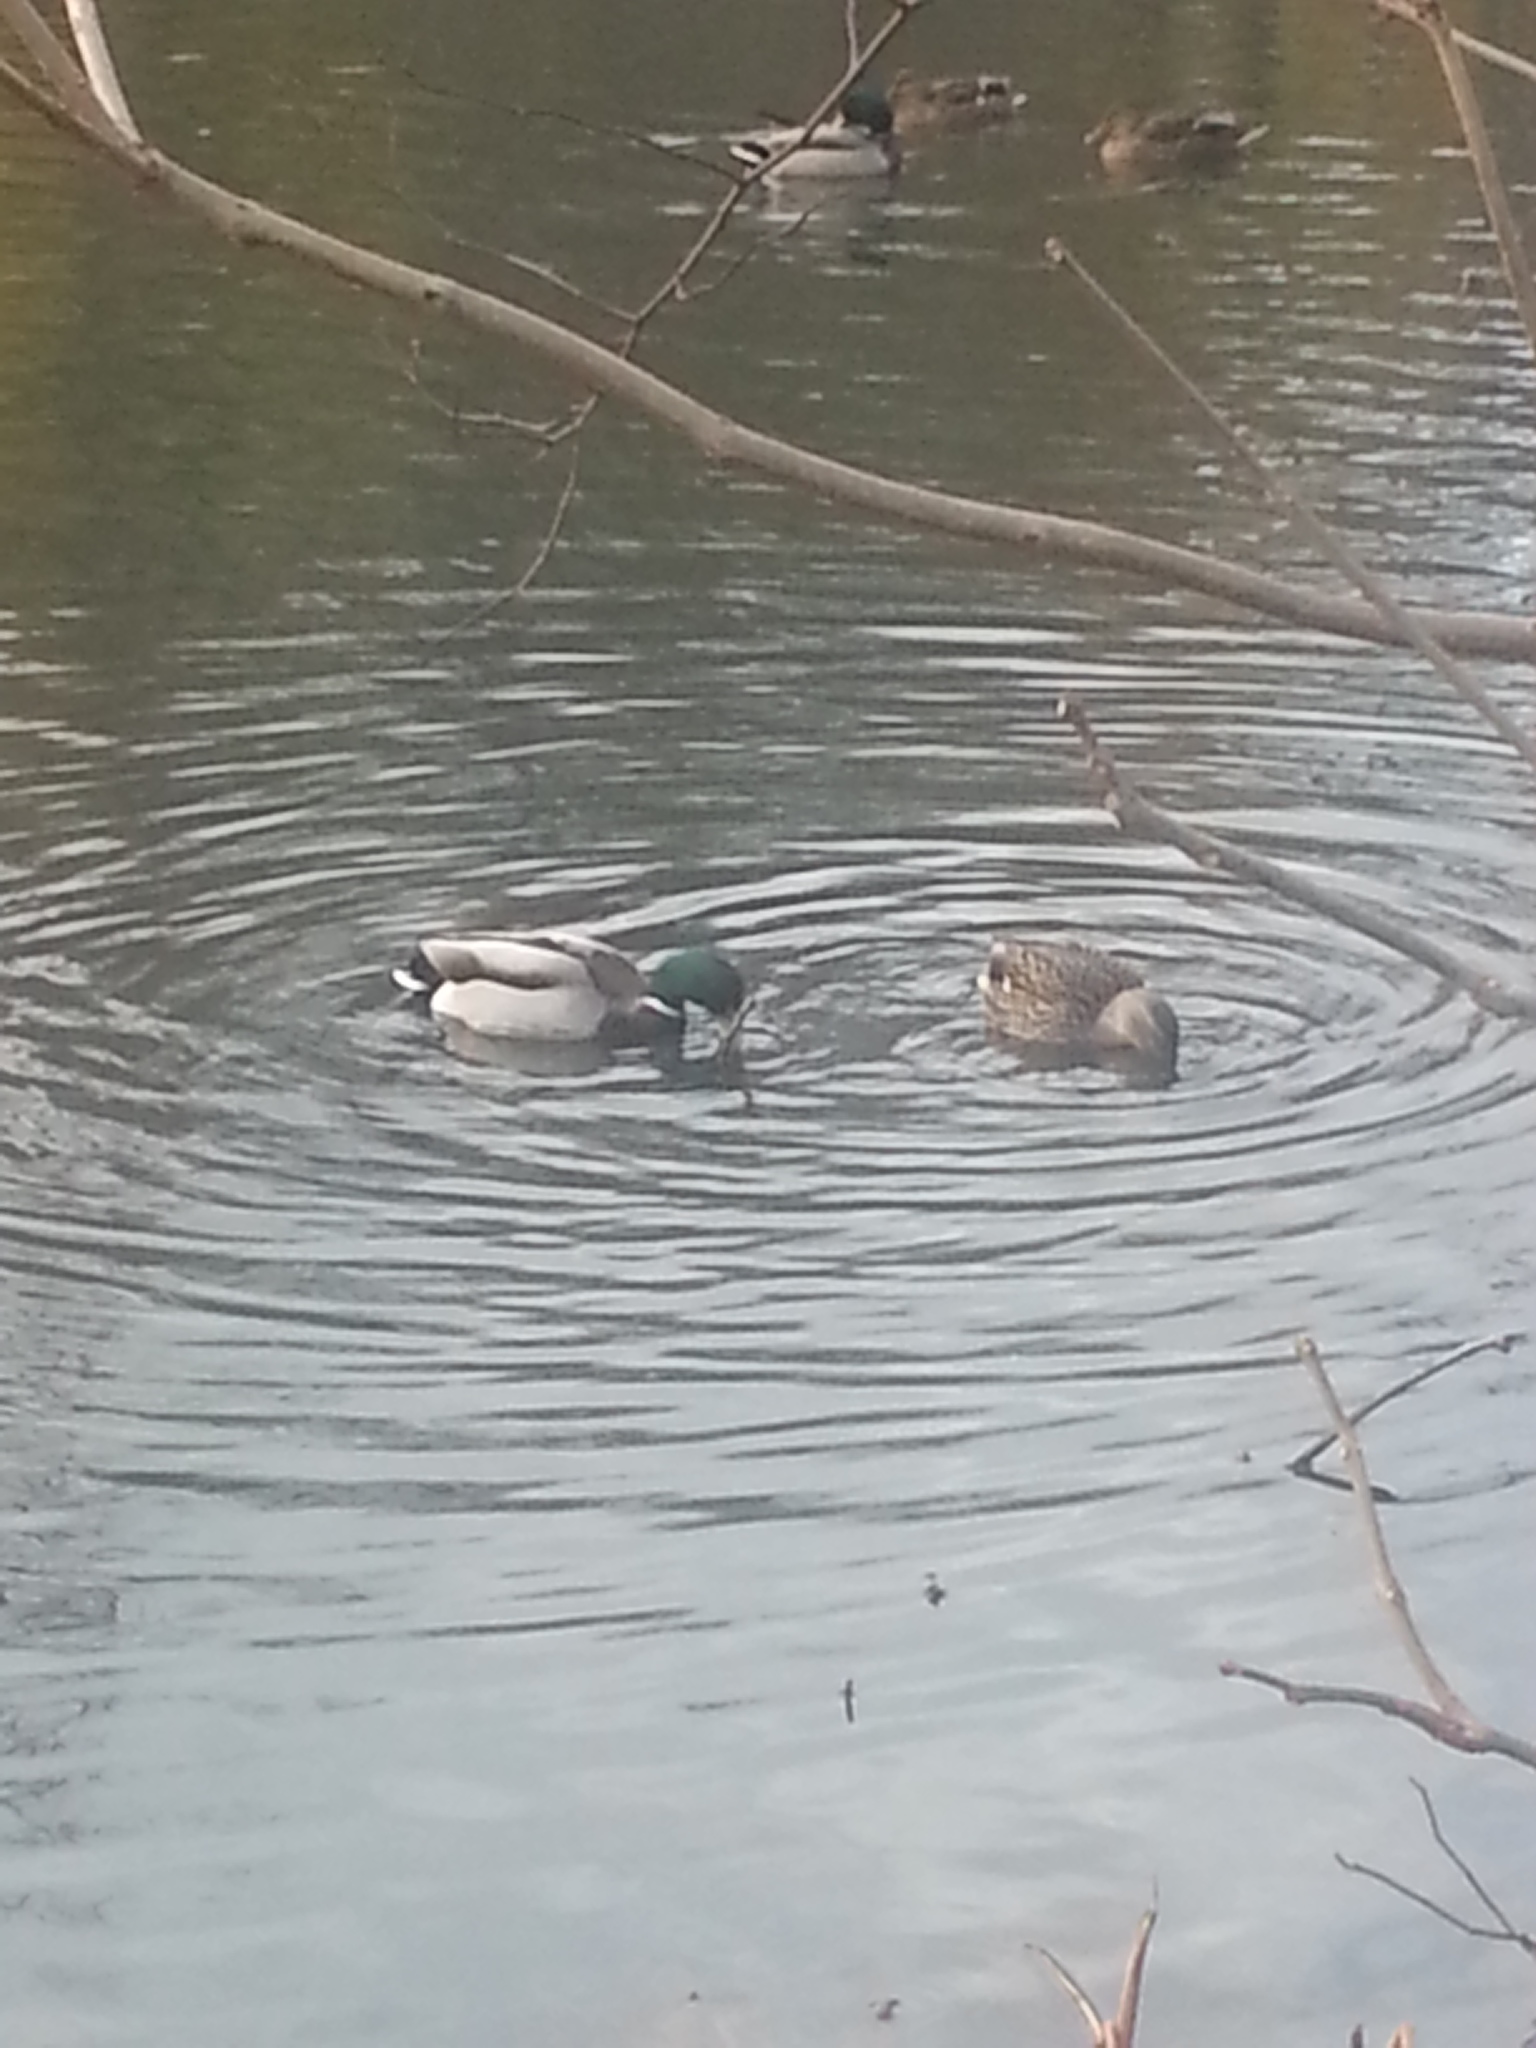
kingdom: Animalia
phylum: Chordata
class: Aves
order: Anseriformes
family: Anatidae
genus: Anas
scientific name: Anas platyrhynchos
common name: Mallard
